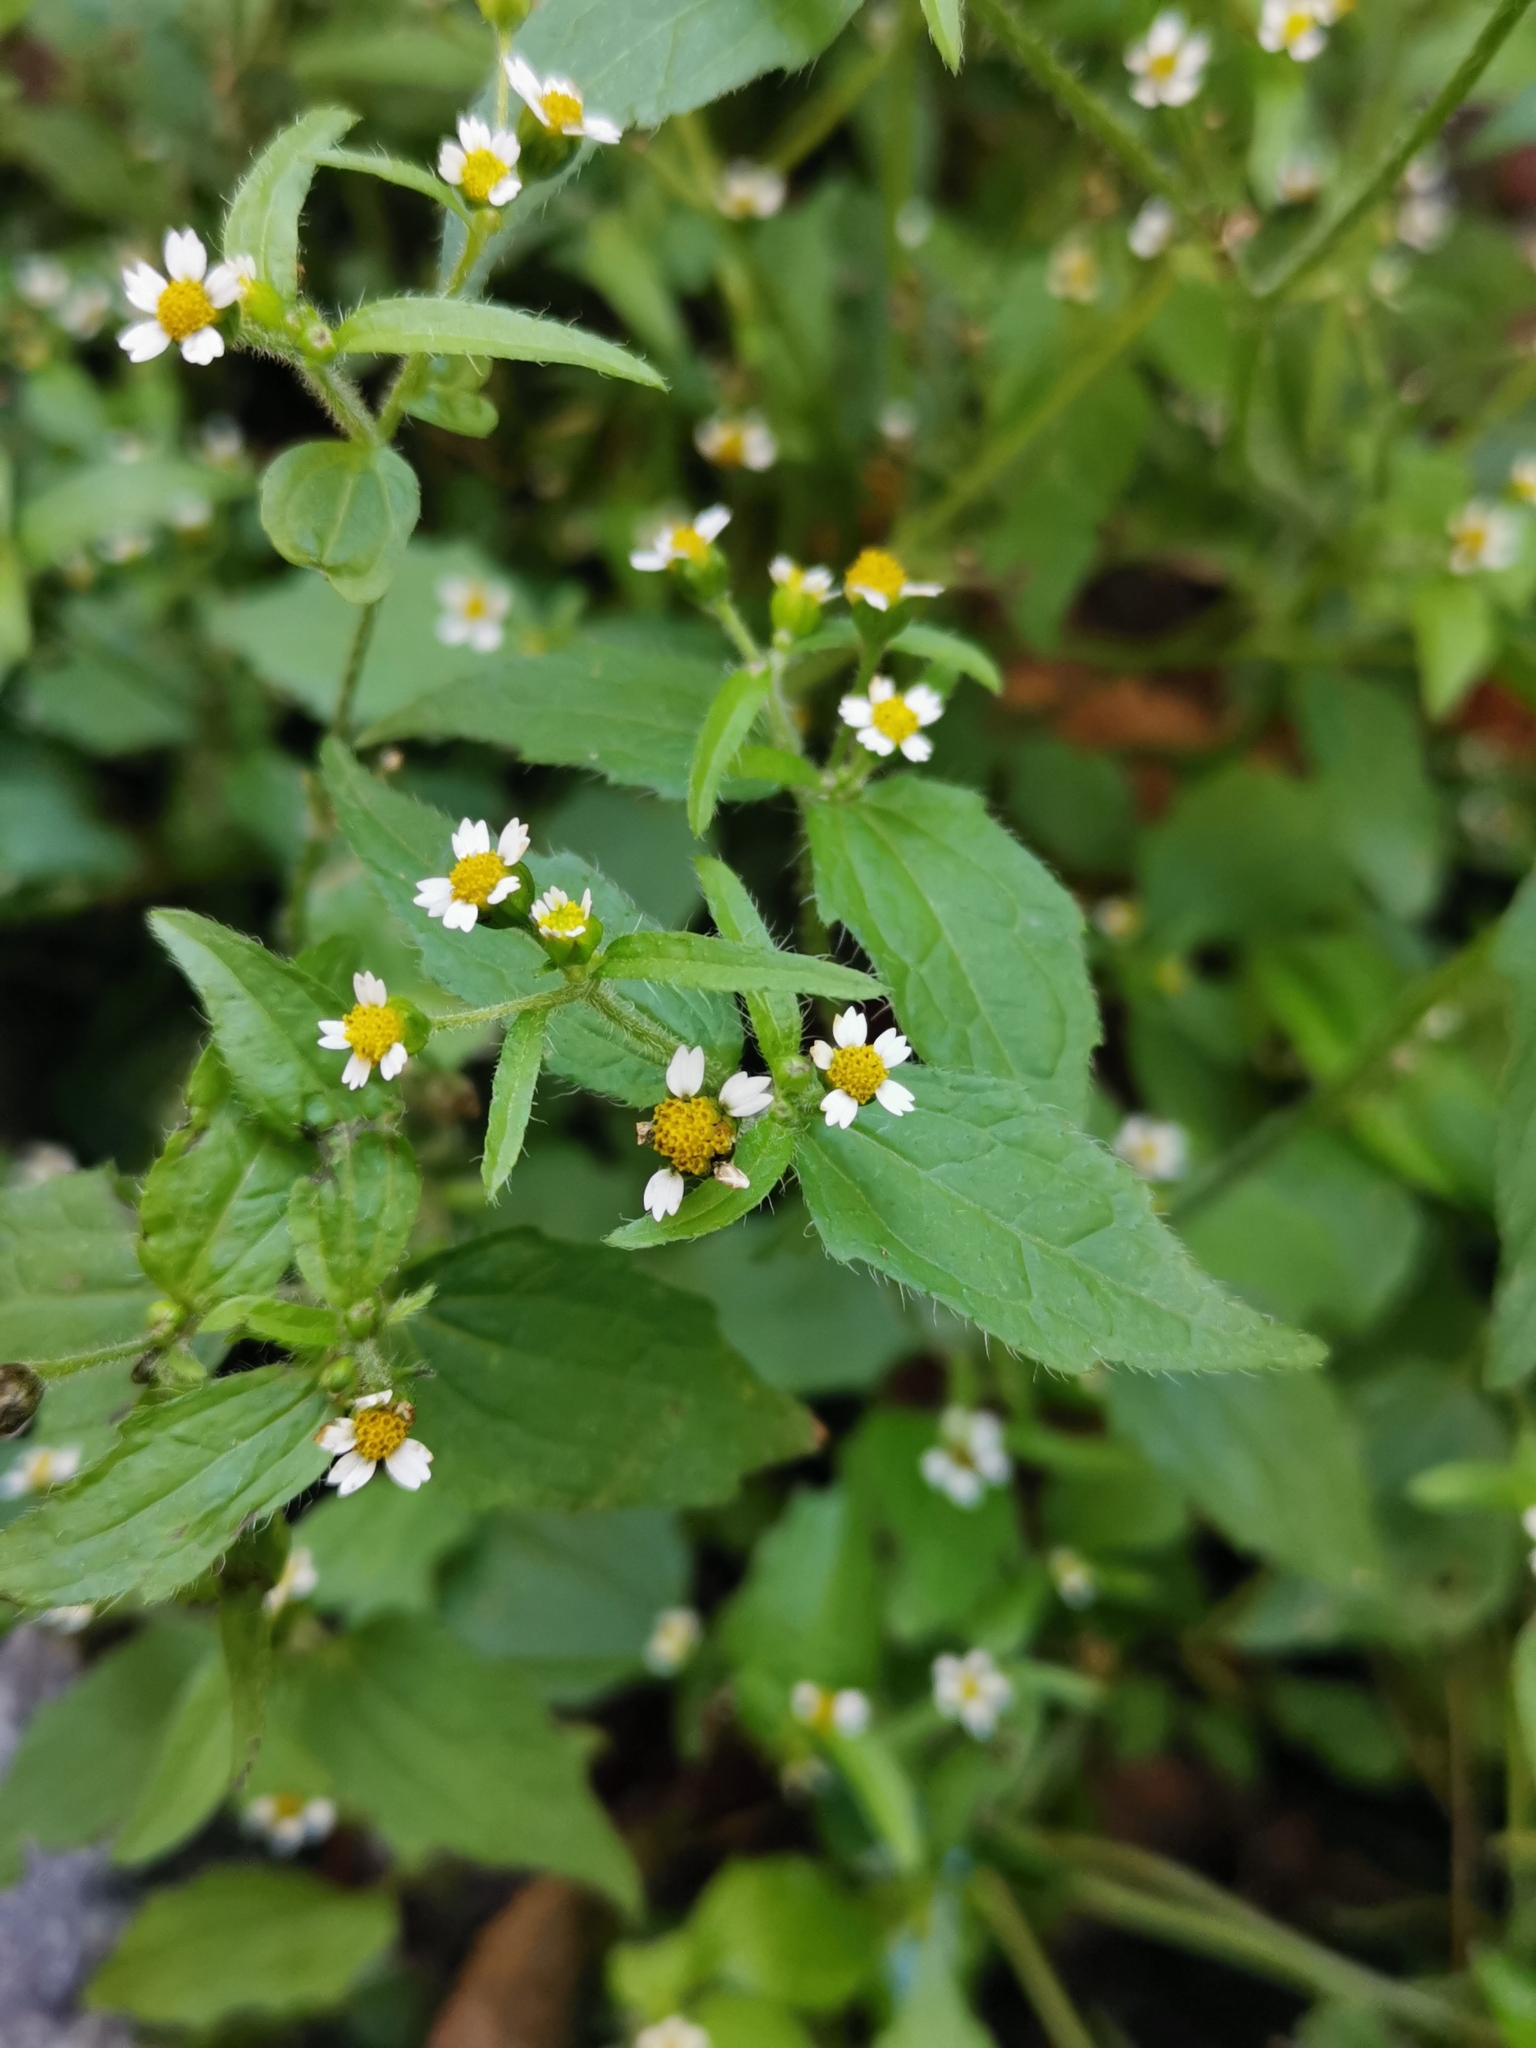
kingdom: Plantae
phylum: Tracheophyta
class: Magnoliopsida
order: Asterales
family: Asteraceae
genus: Galinsoga
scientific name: Galinsoga quadriradiata
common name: Shaggy soldier
